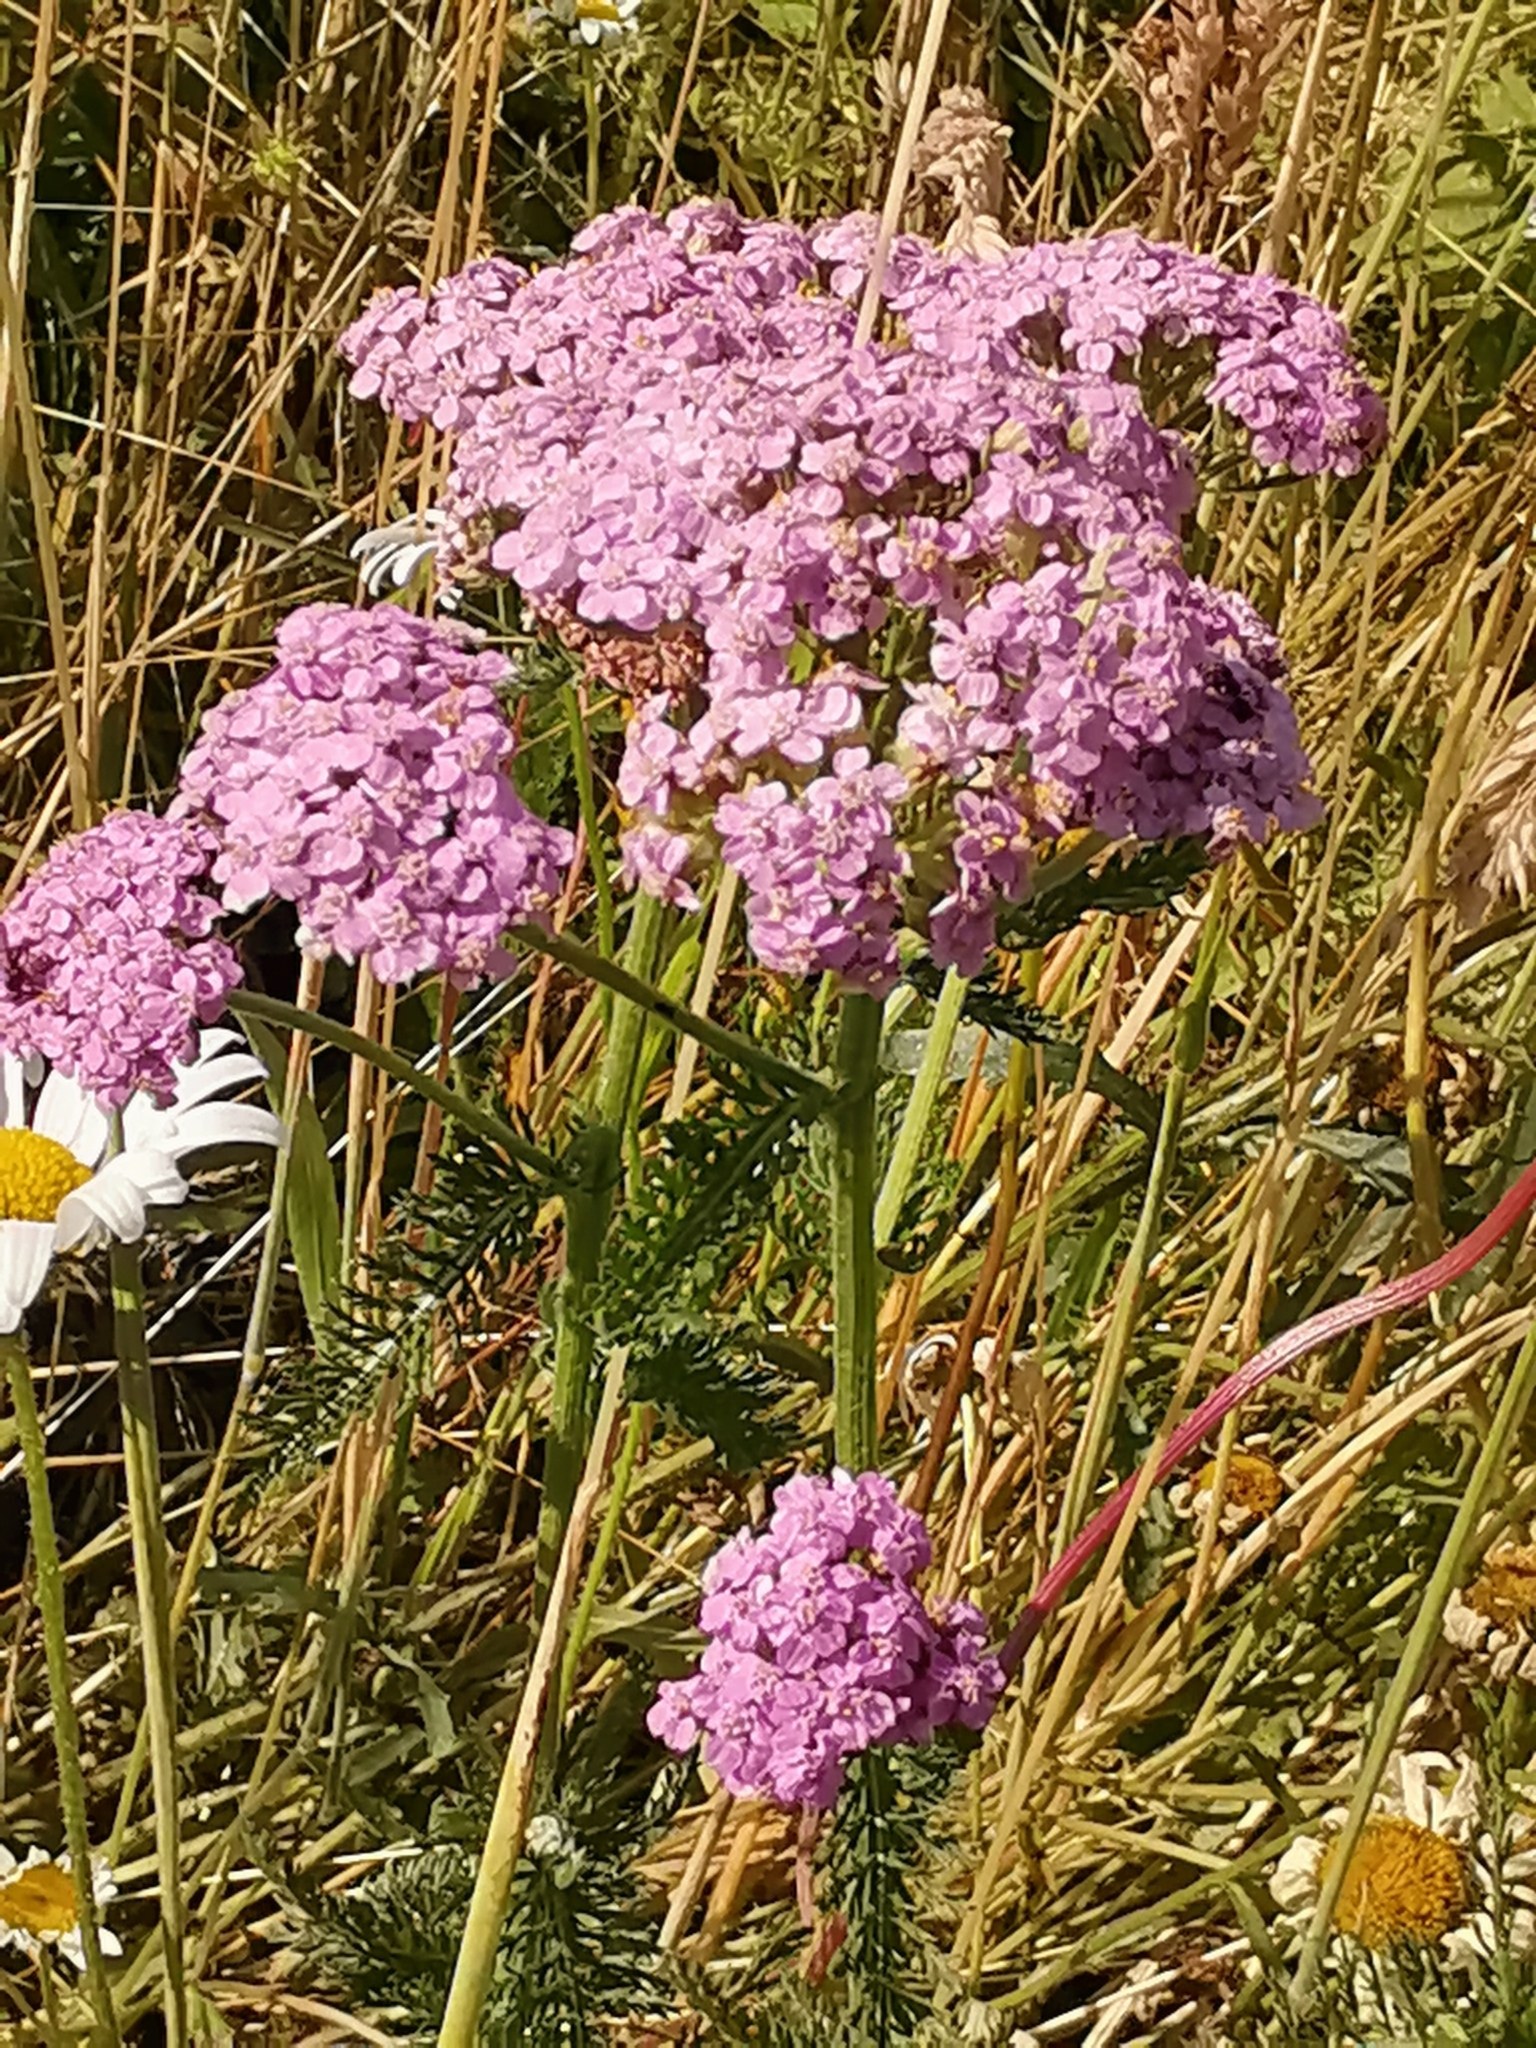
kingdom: Plantae
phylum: Tracheophyta
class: Magnoliopsida
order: Asterales
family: Asteraceae
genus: Achillea
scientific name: Achillea millefolium
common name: Yarrow
